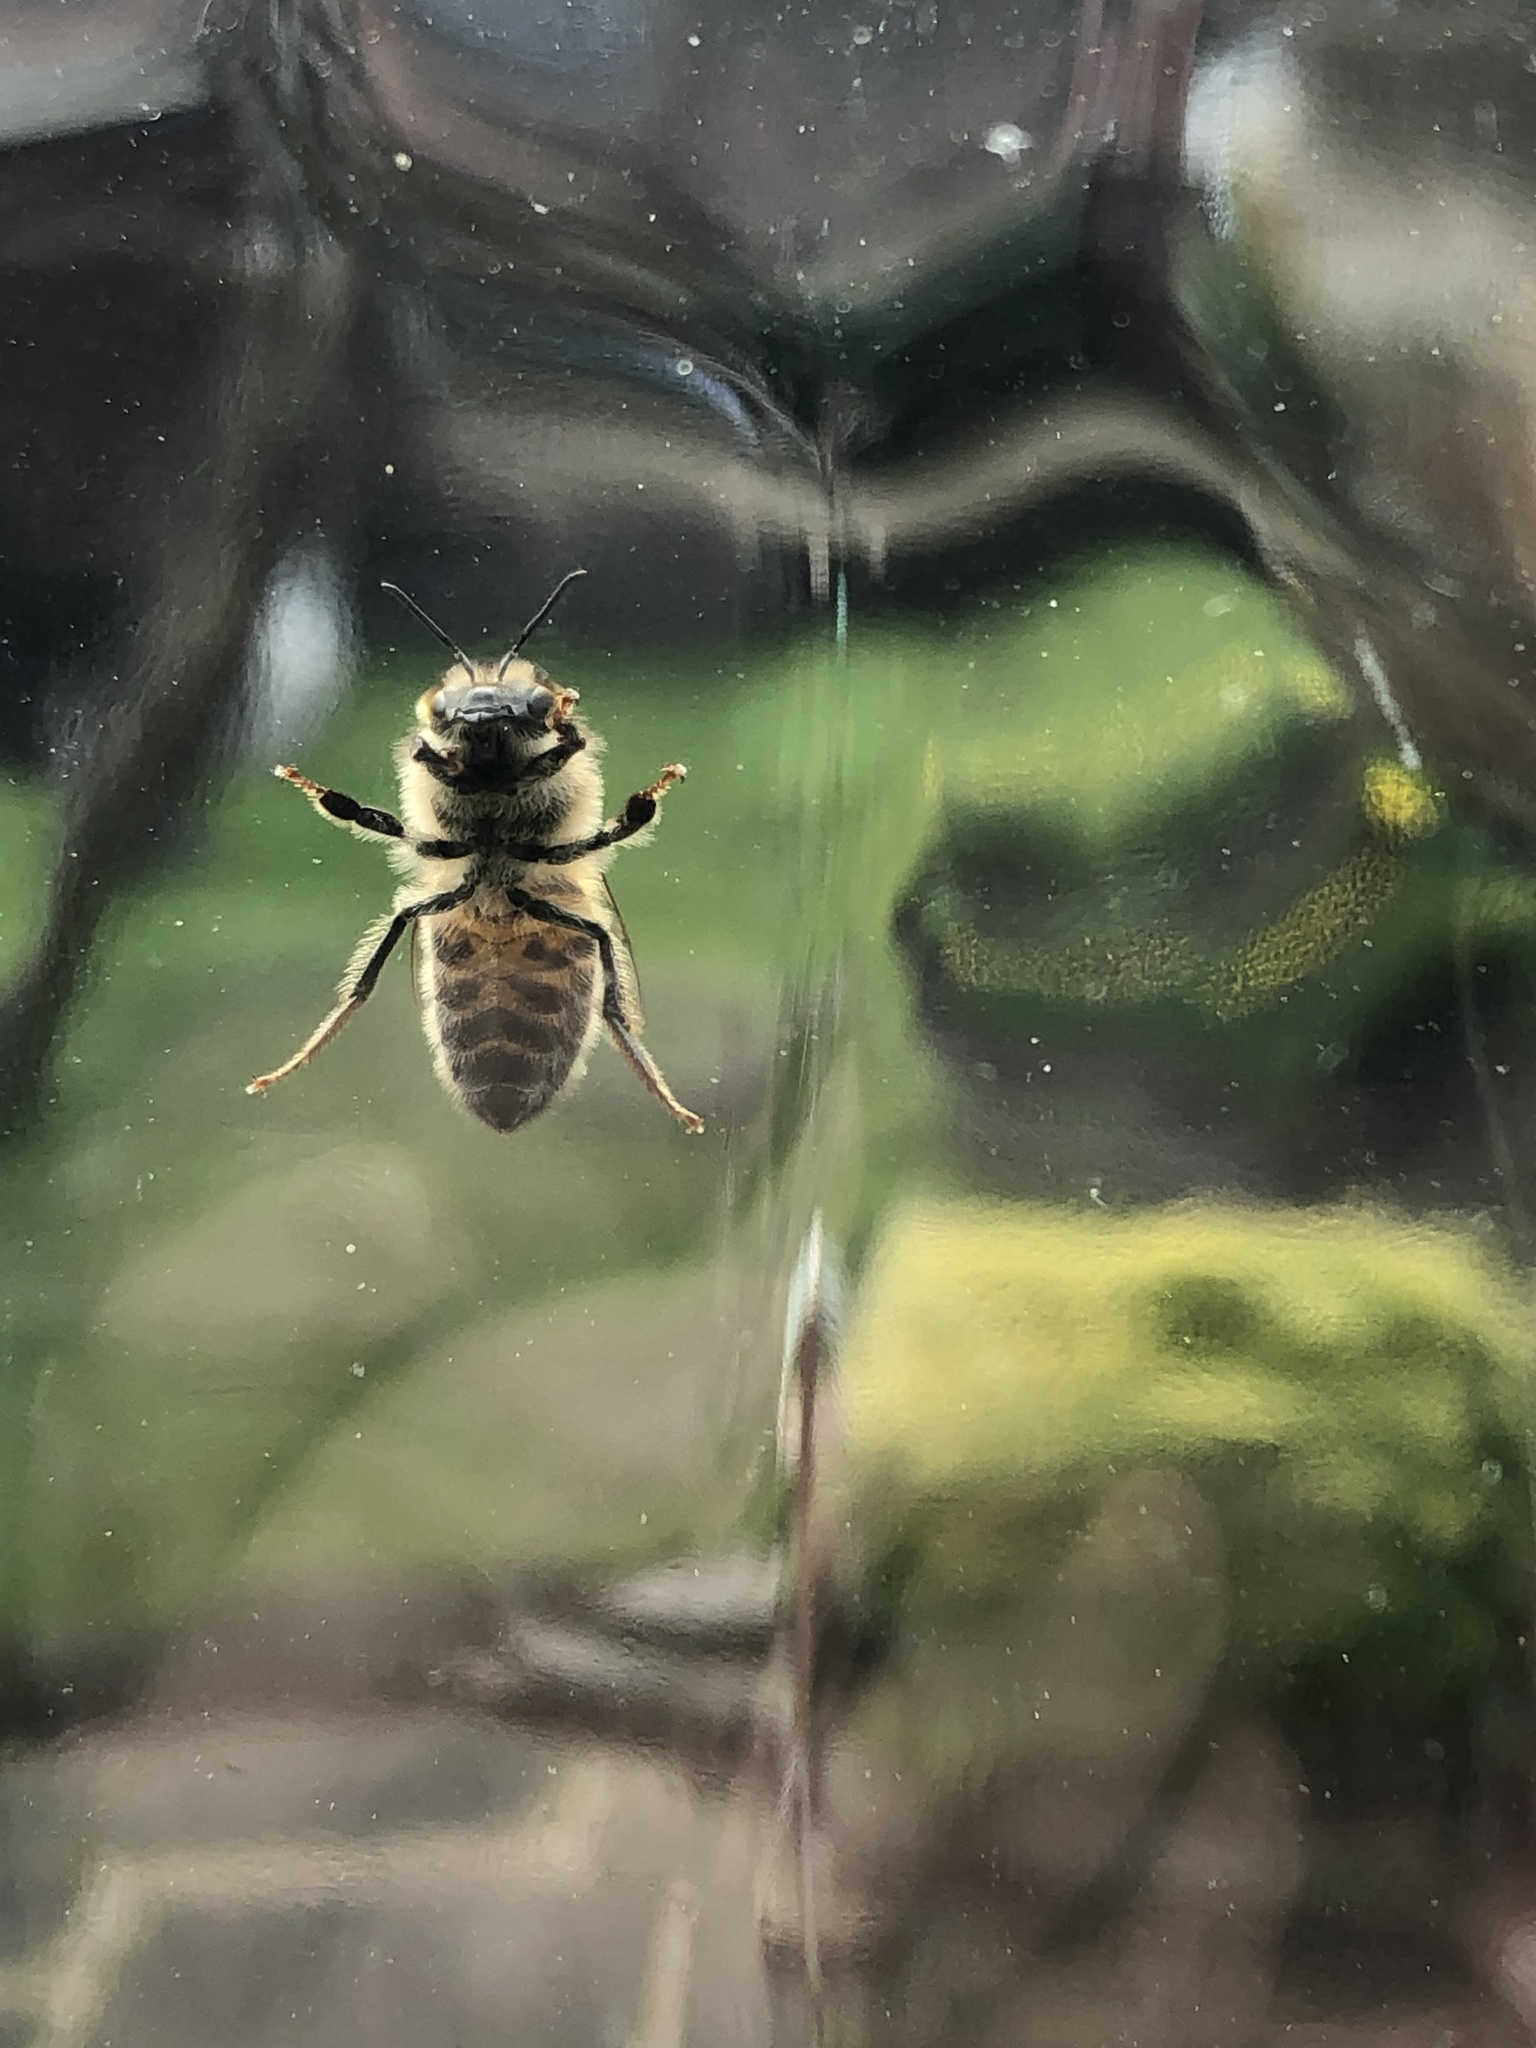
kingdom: Animalia
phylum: Arthropoda
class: Insecta
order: Hymenoptera
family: Apidae
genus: Apis
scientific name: Apis mellifera
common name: Honey bee
